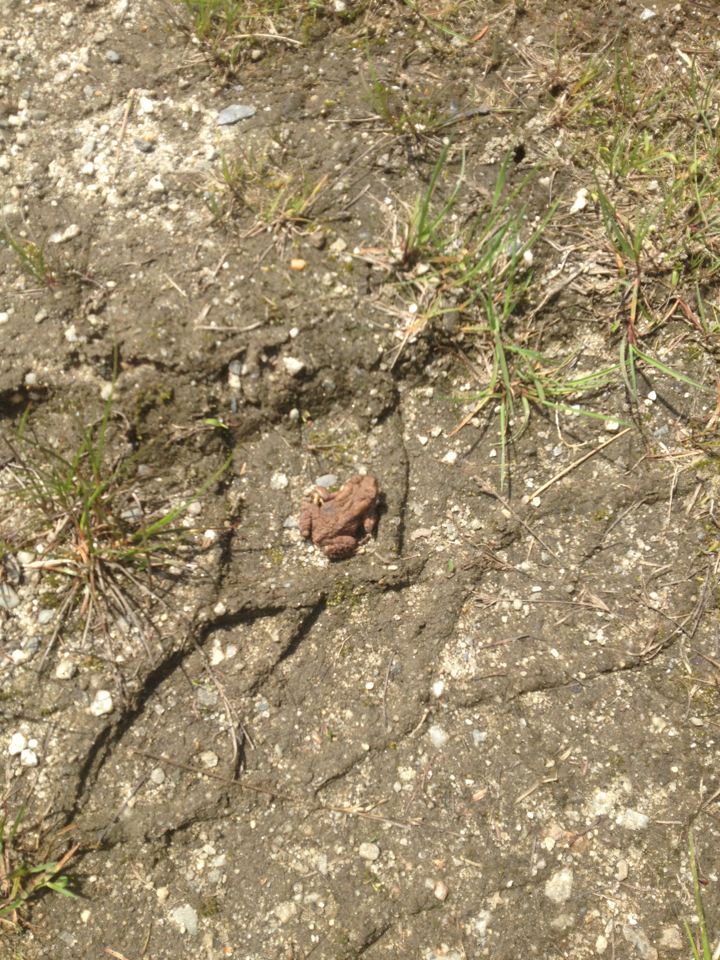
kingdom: Animalia
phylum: Chordata
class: Amphibia
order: Anura
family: Bufonidae
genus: Anaxyrus
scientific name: Anaxyrus americanus
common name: American toad
